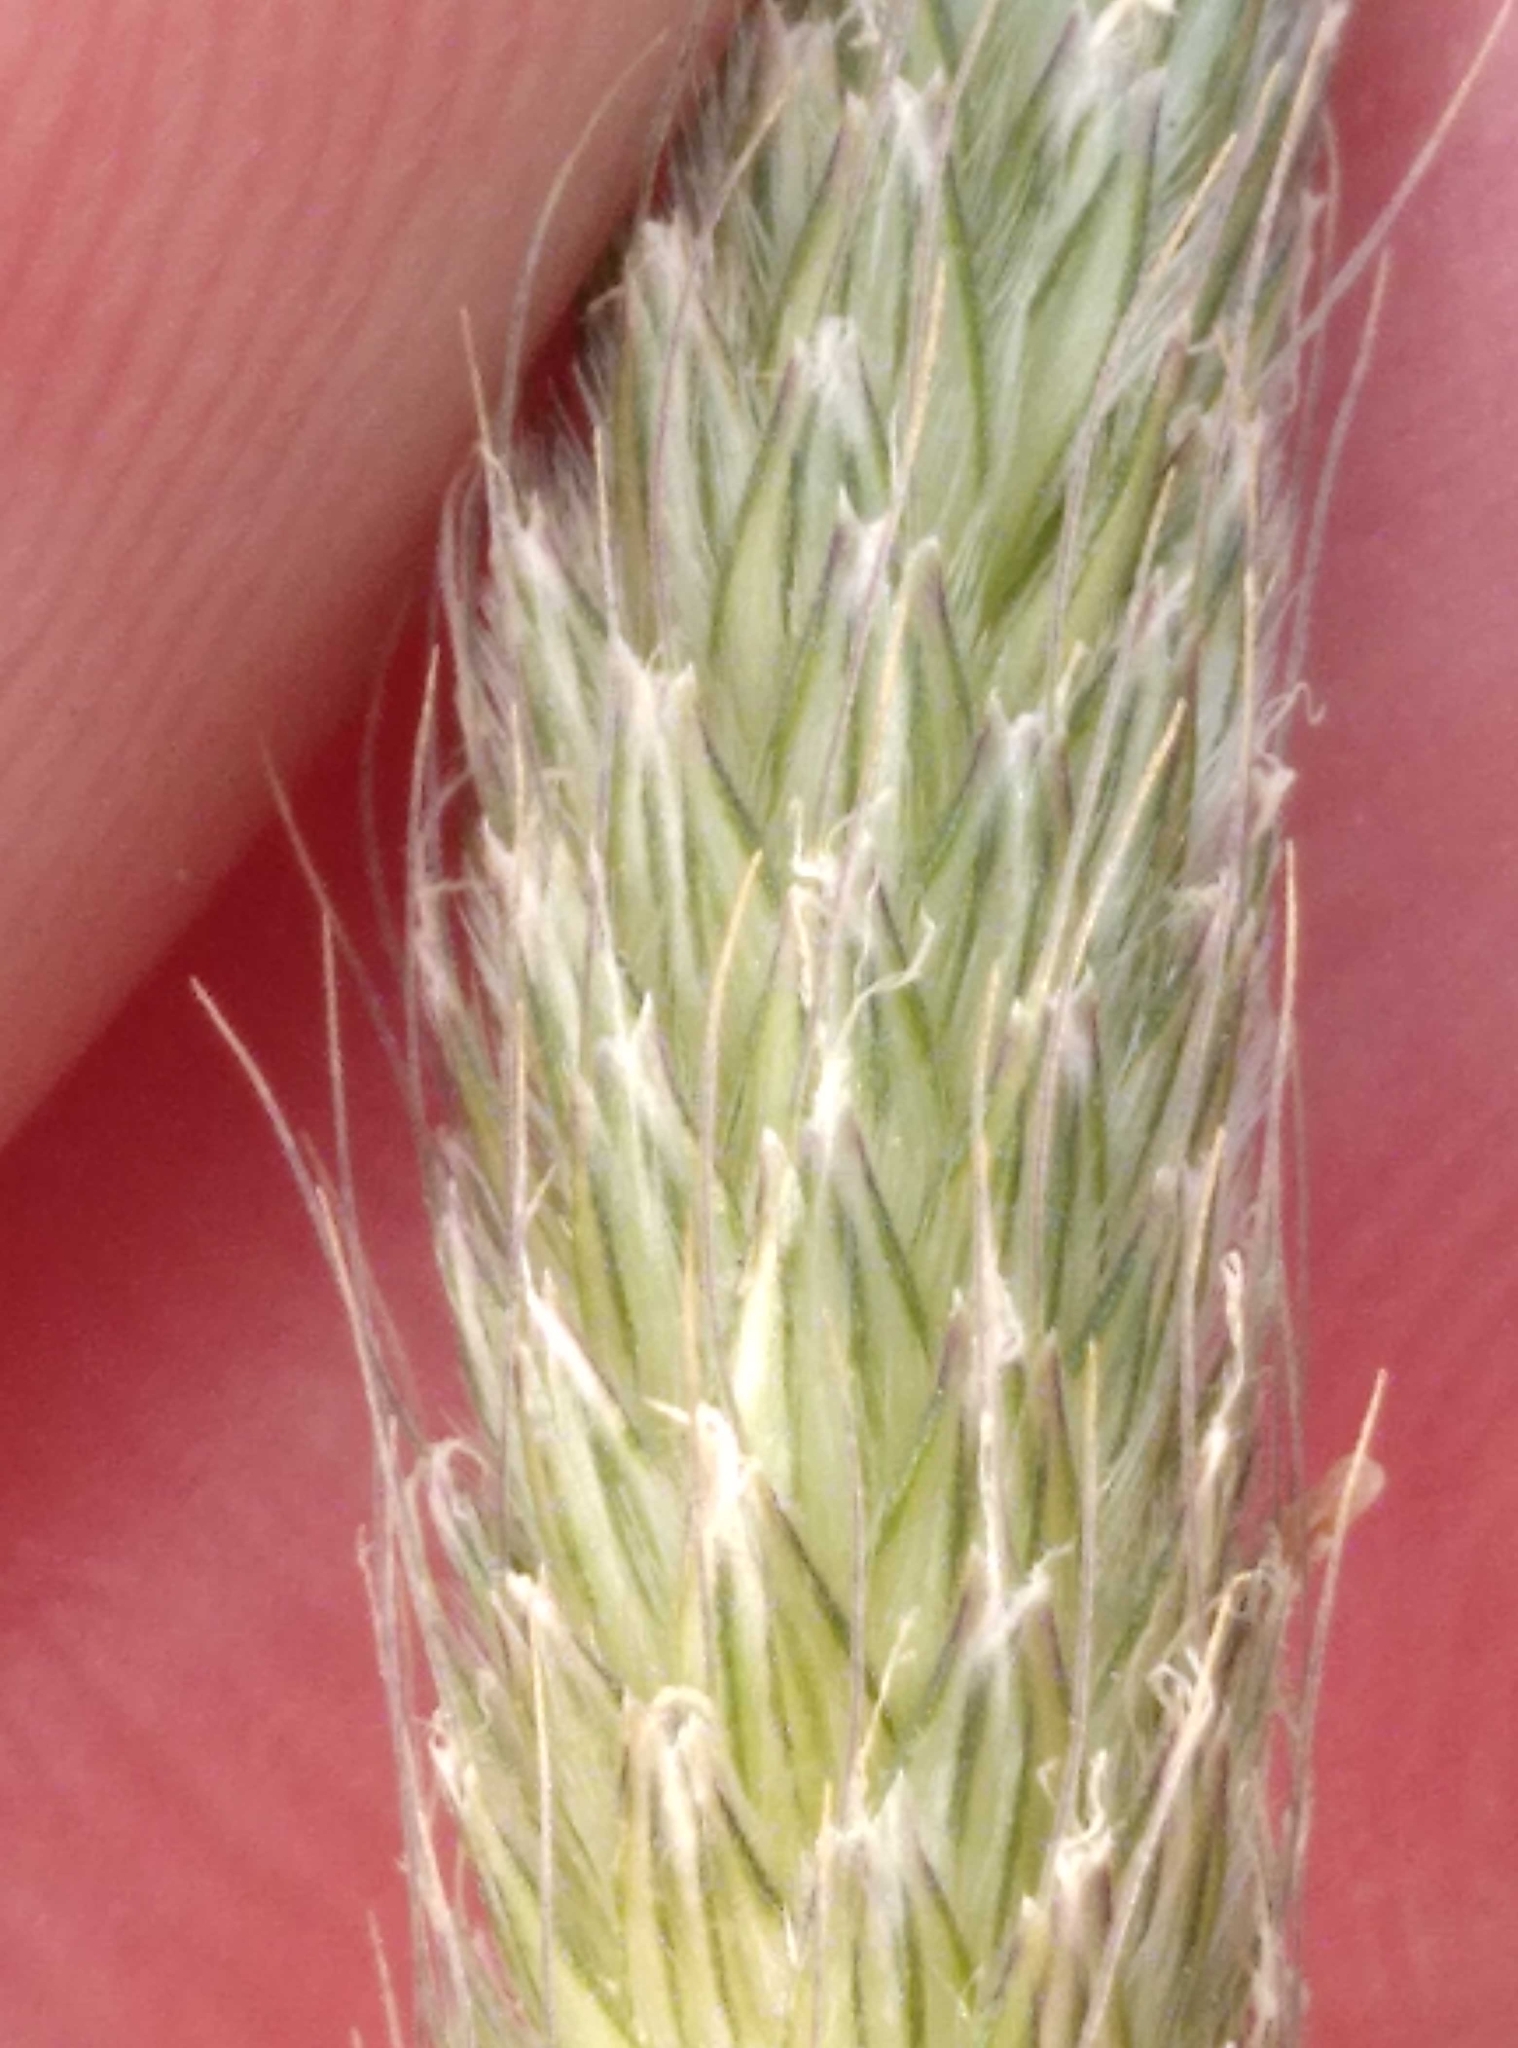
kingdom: Plantae
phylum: Tracheophyta
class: Liliopsida
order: Poales
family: Poaceae
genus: Alopecurus
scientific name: Alopecurus pratensis
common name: Meadow foxtail
